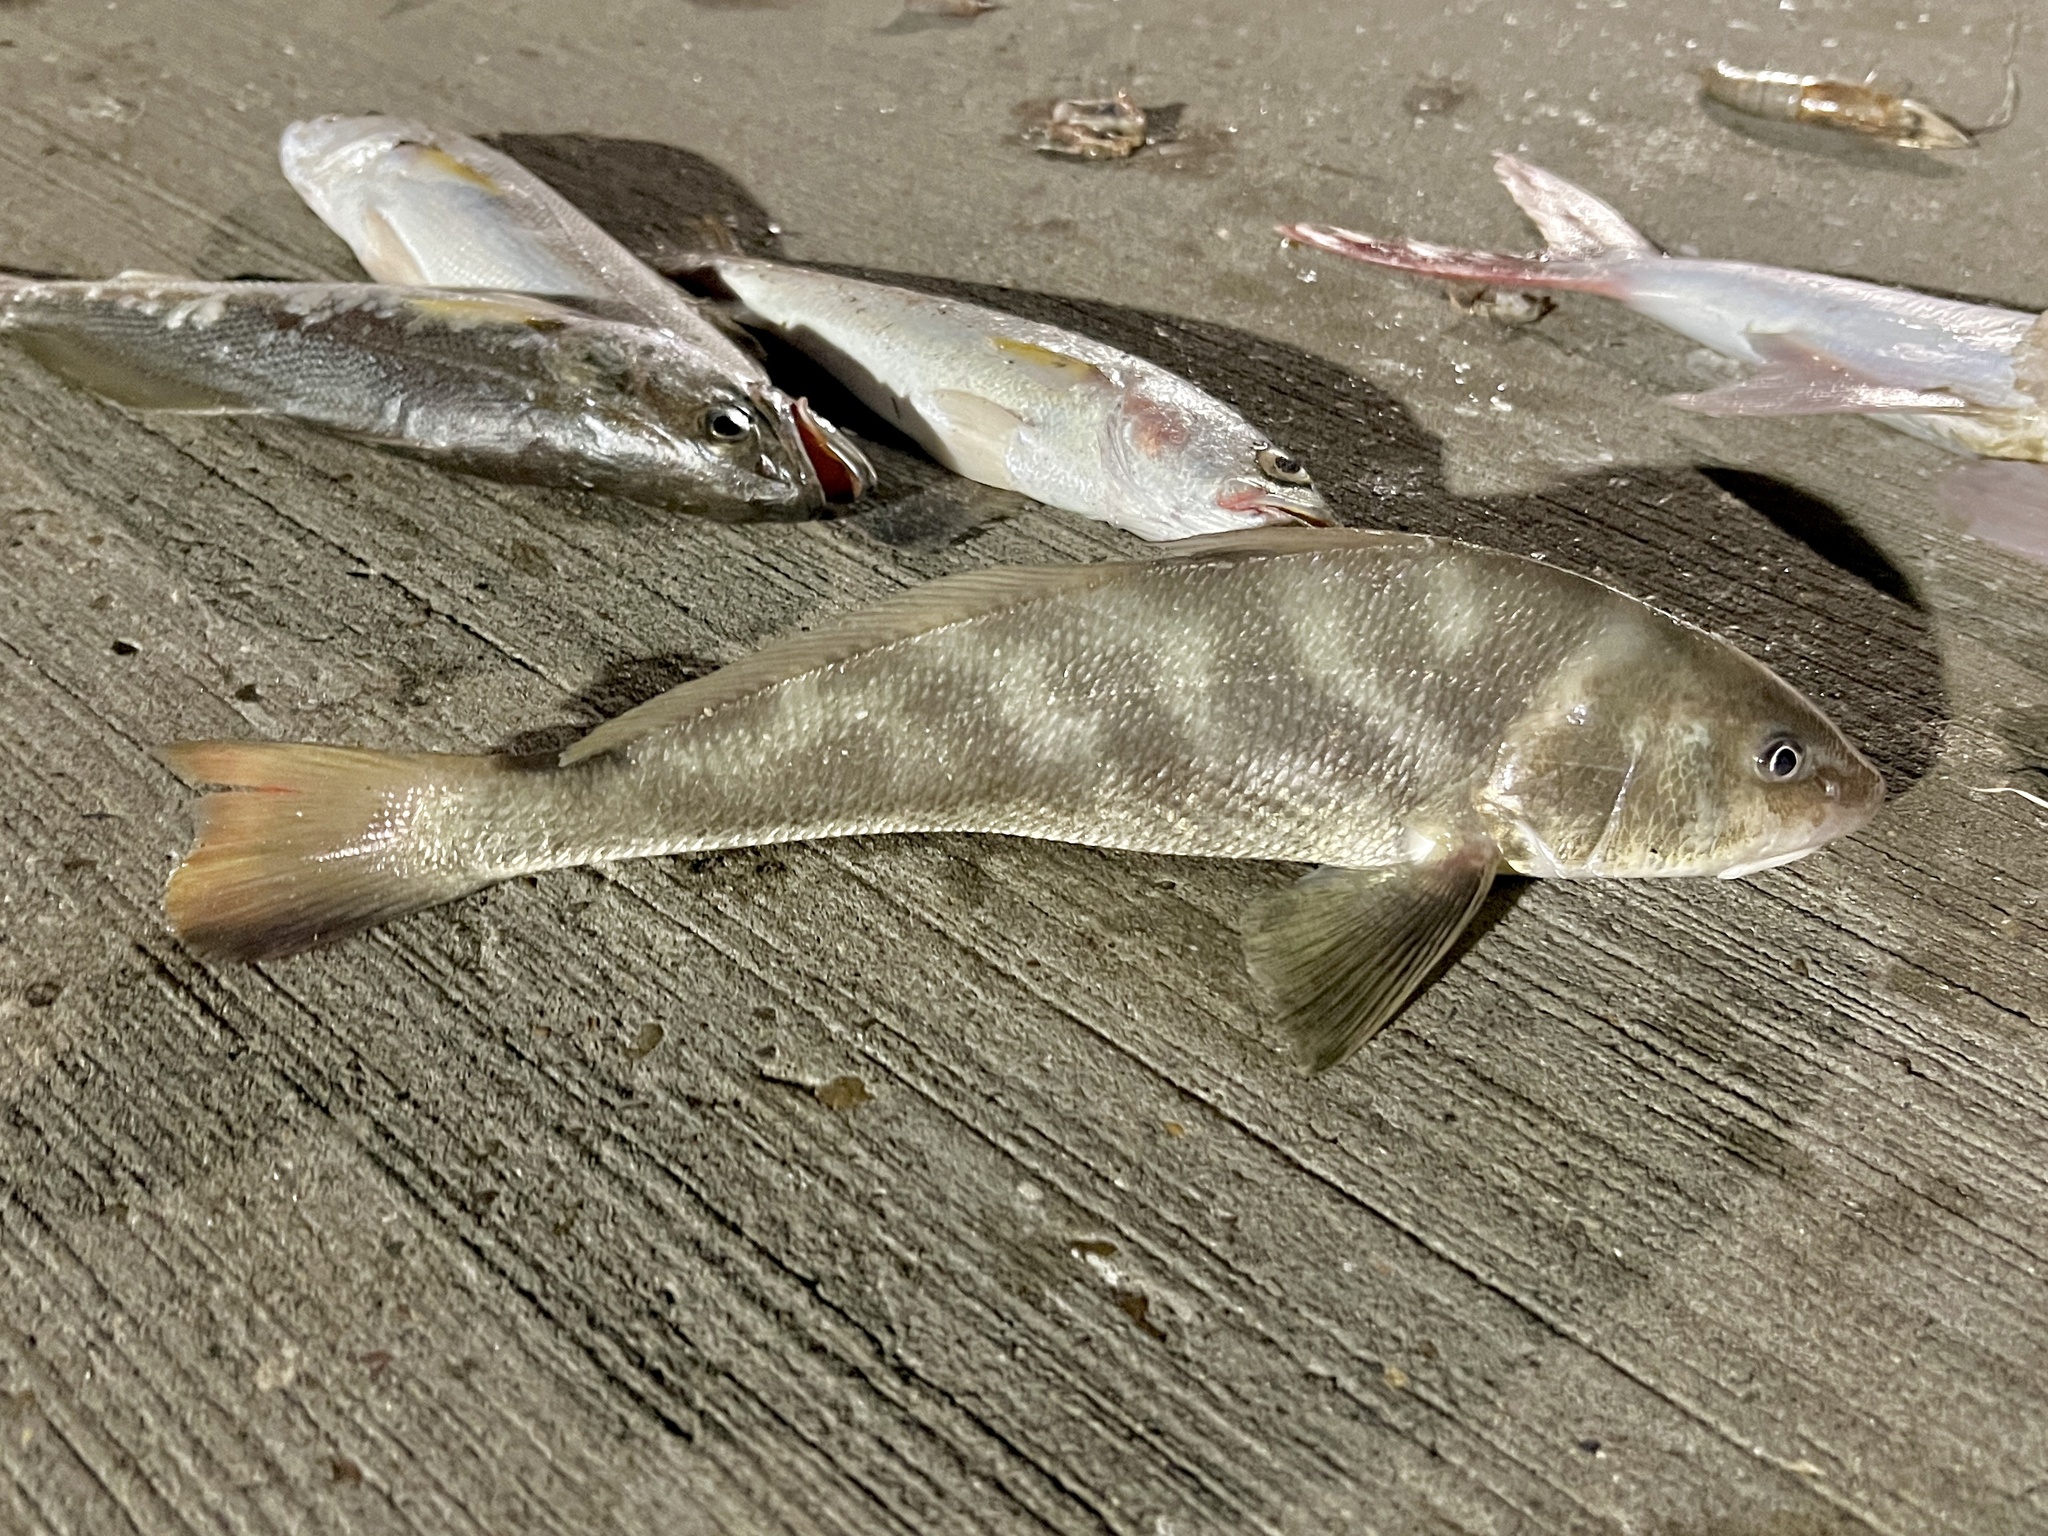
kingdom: Animalia
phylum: Chordata
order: Perciformes
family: Sciaenidae
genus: Menticirrhus
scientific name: Menticirrhus americanus
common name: Southern kingfish
